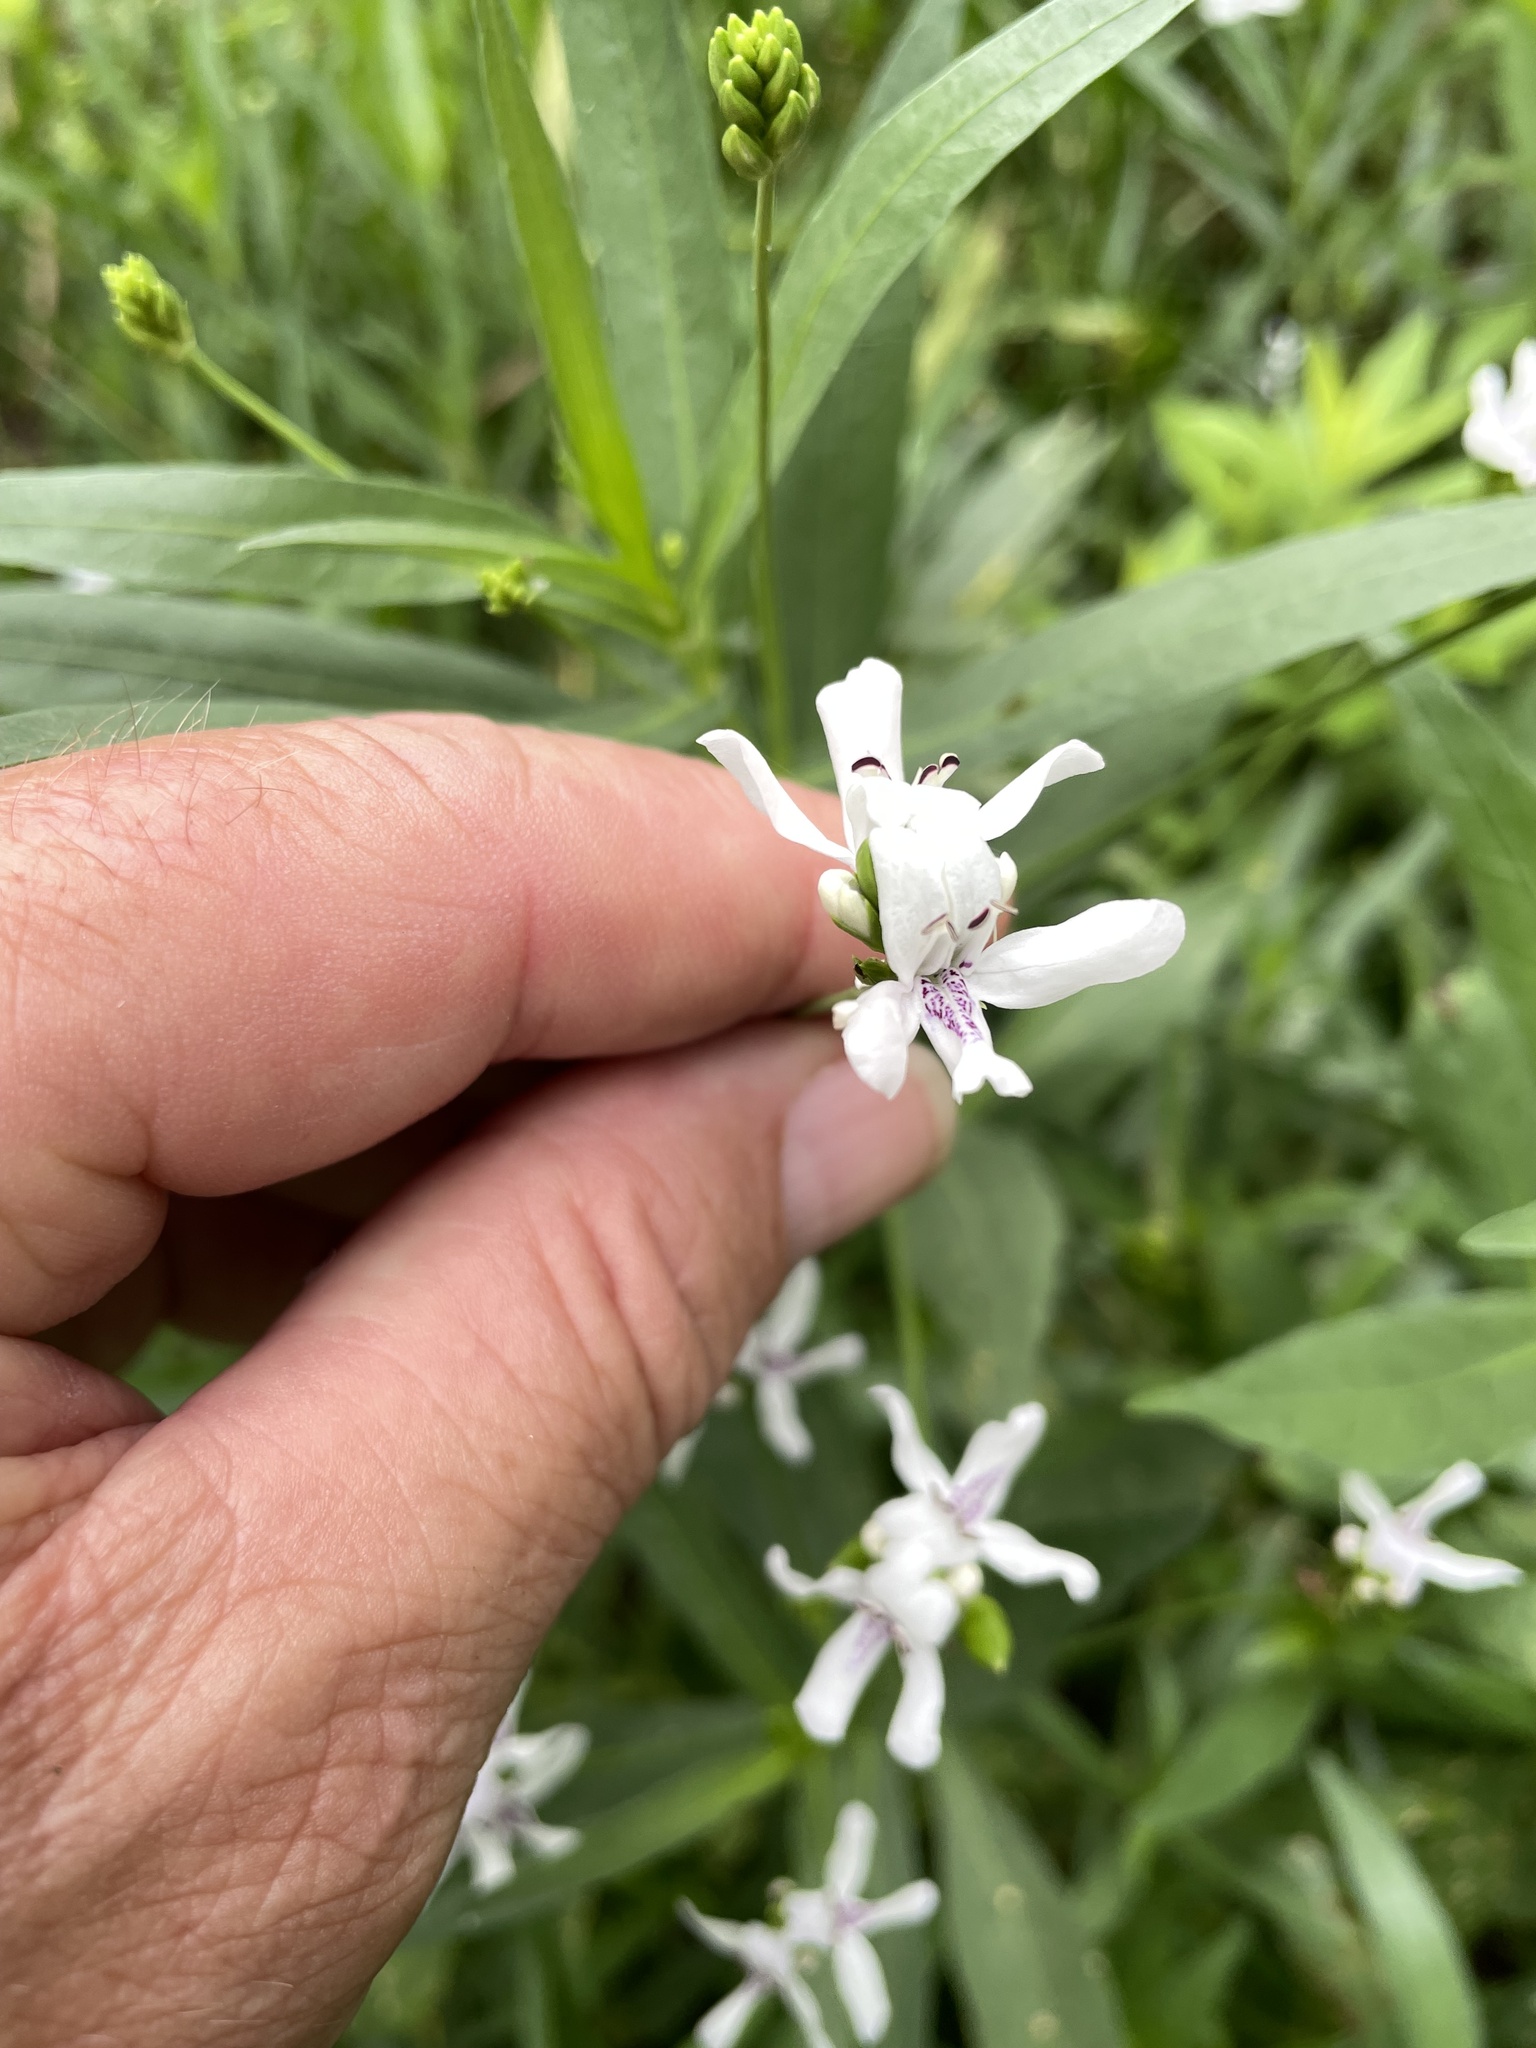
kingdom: Plantae
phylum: Tracheophyta
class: Magnoliopsida
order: Lamiales
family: Acanthaceae
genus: Dianthera
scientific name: Dianthera americana
